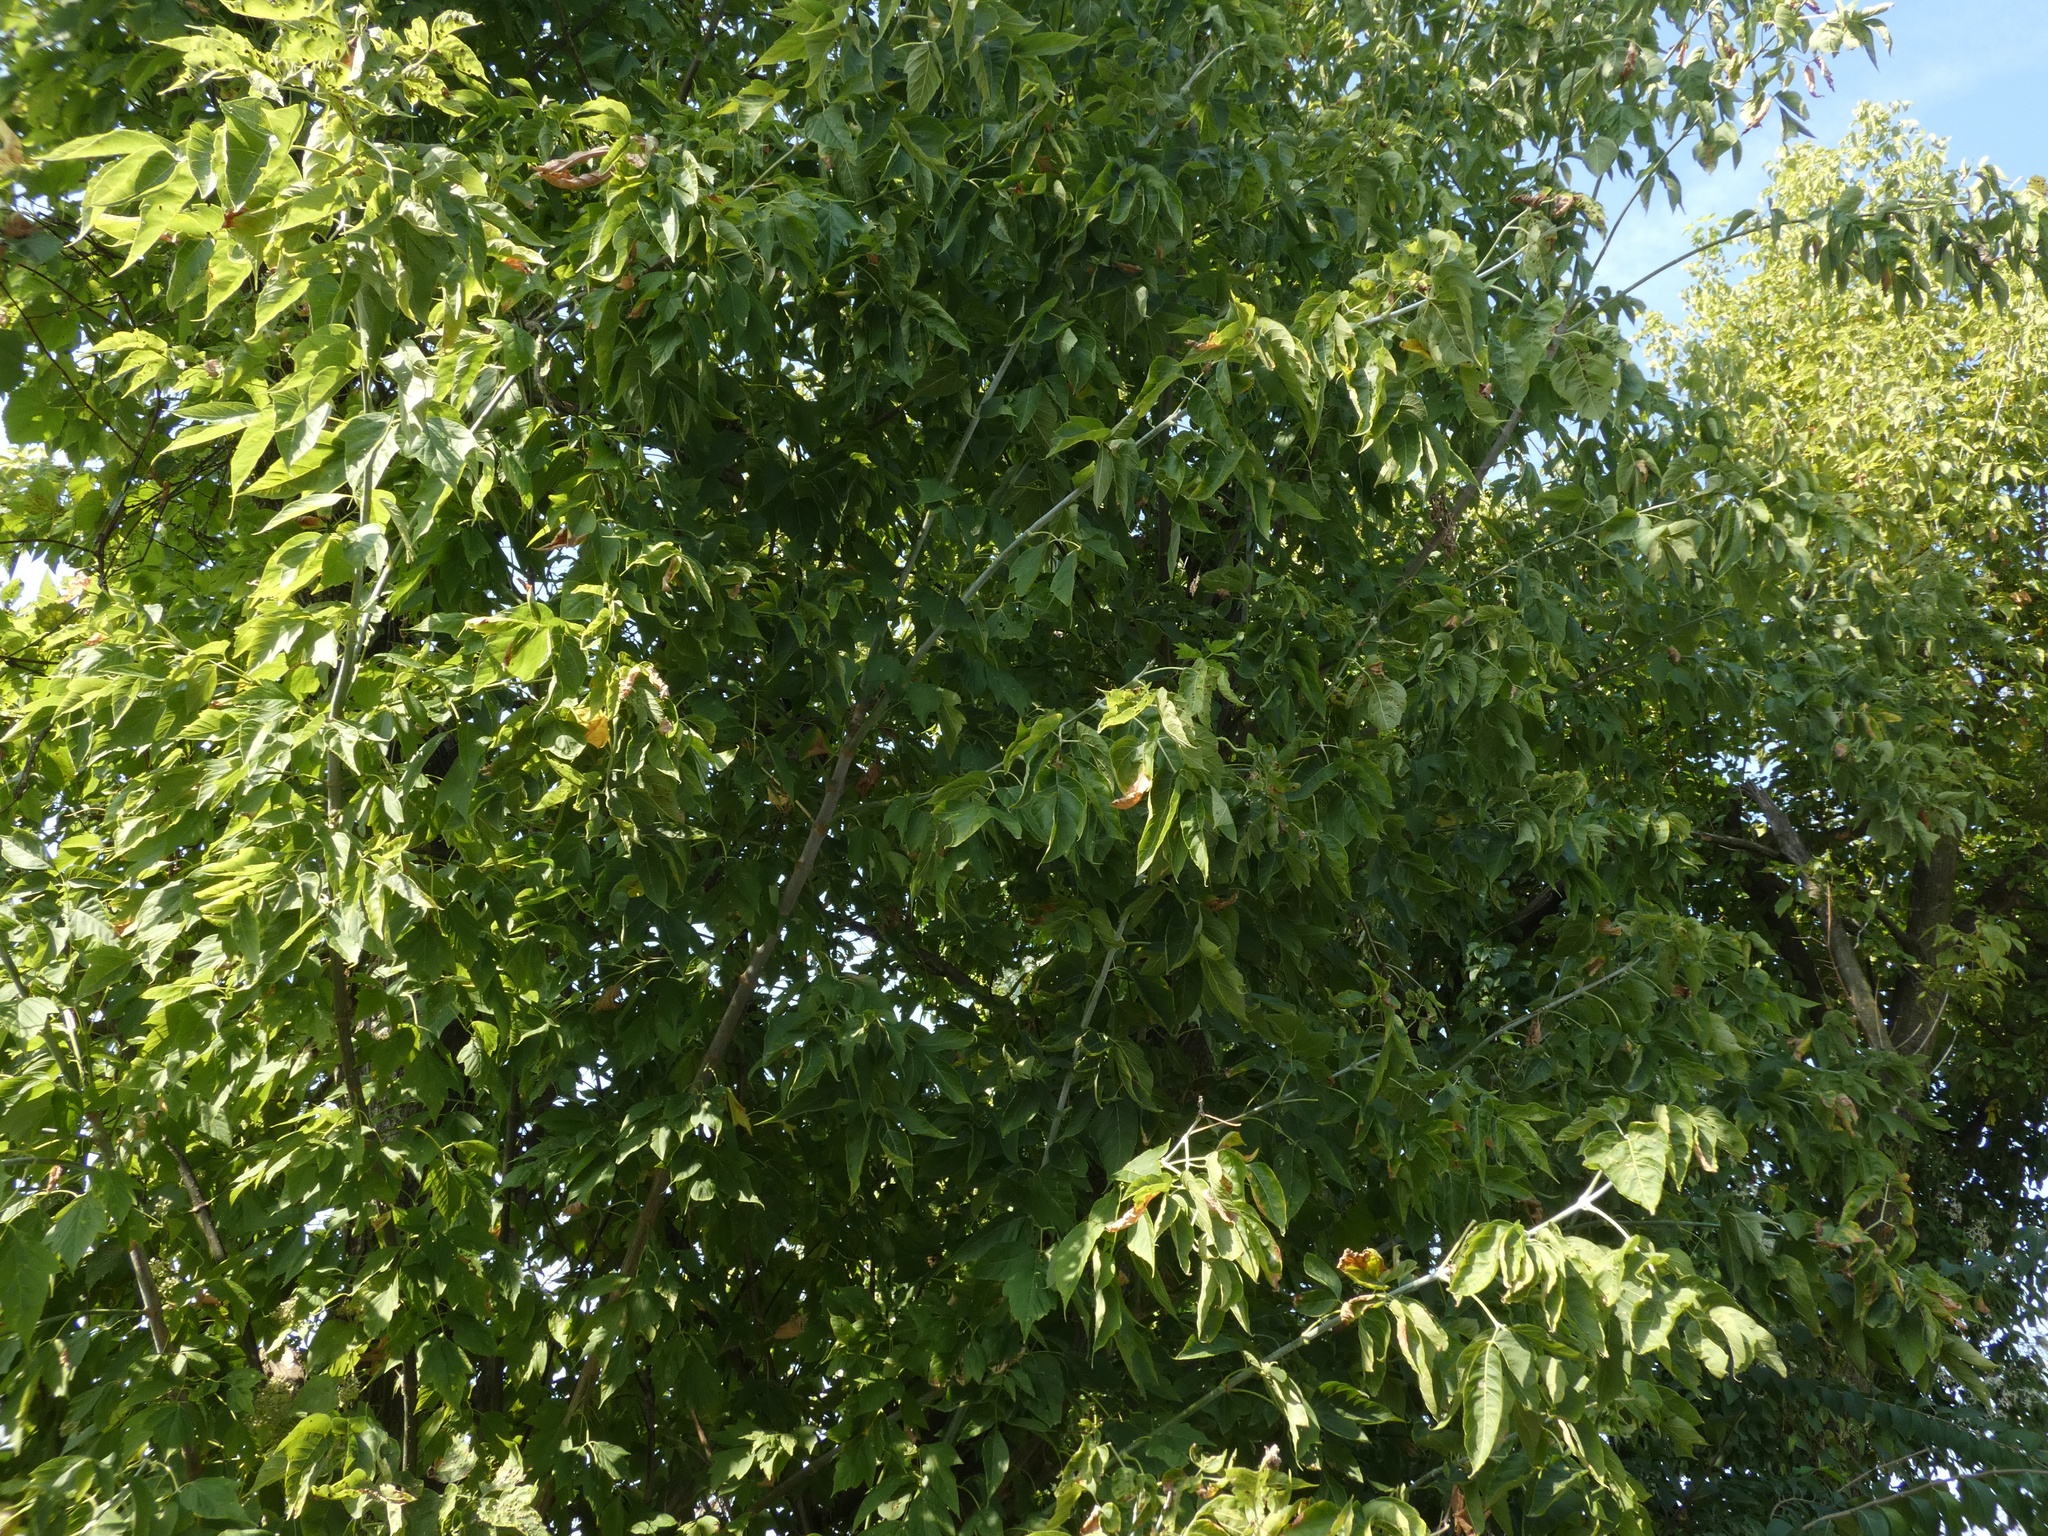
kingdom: Plantae
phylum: Tracheophyta
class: Magnoliopsida
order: Sapindales
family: Sapindaceae
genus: Acer
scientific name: Acer negundo
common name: Ashleaf maple
